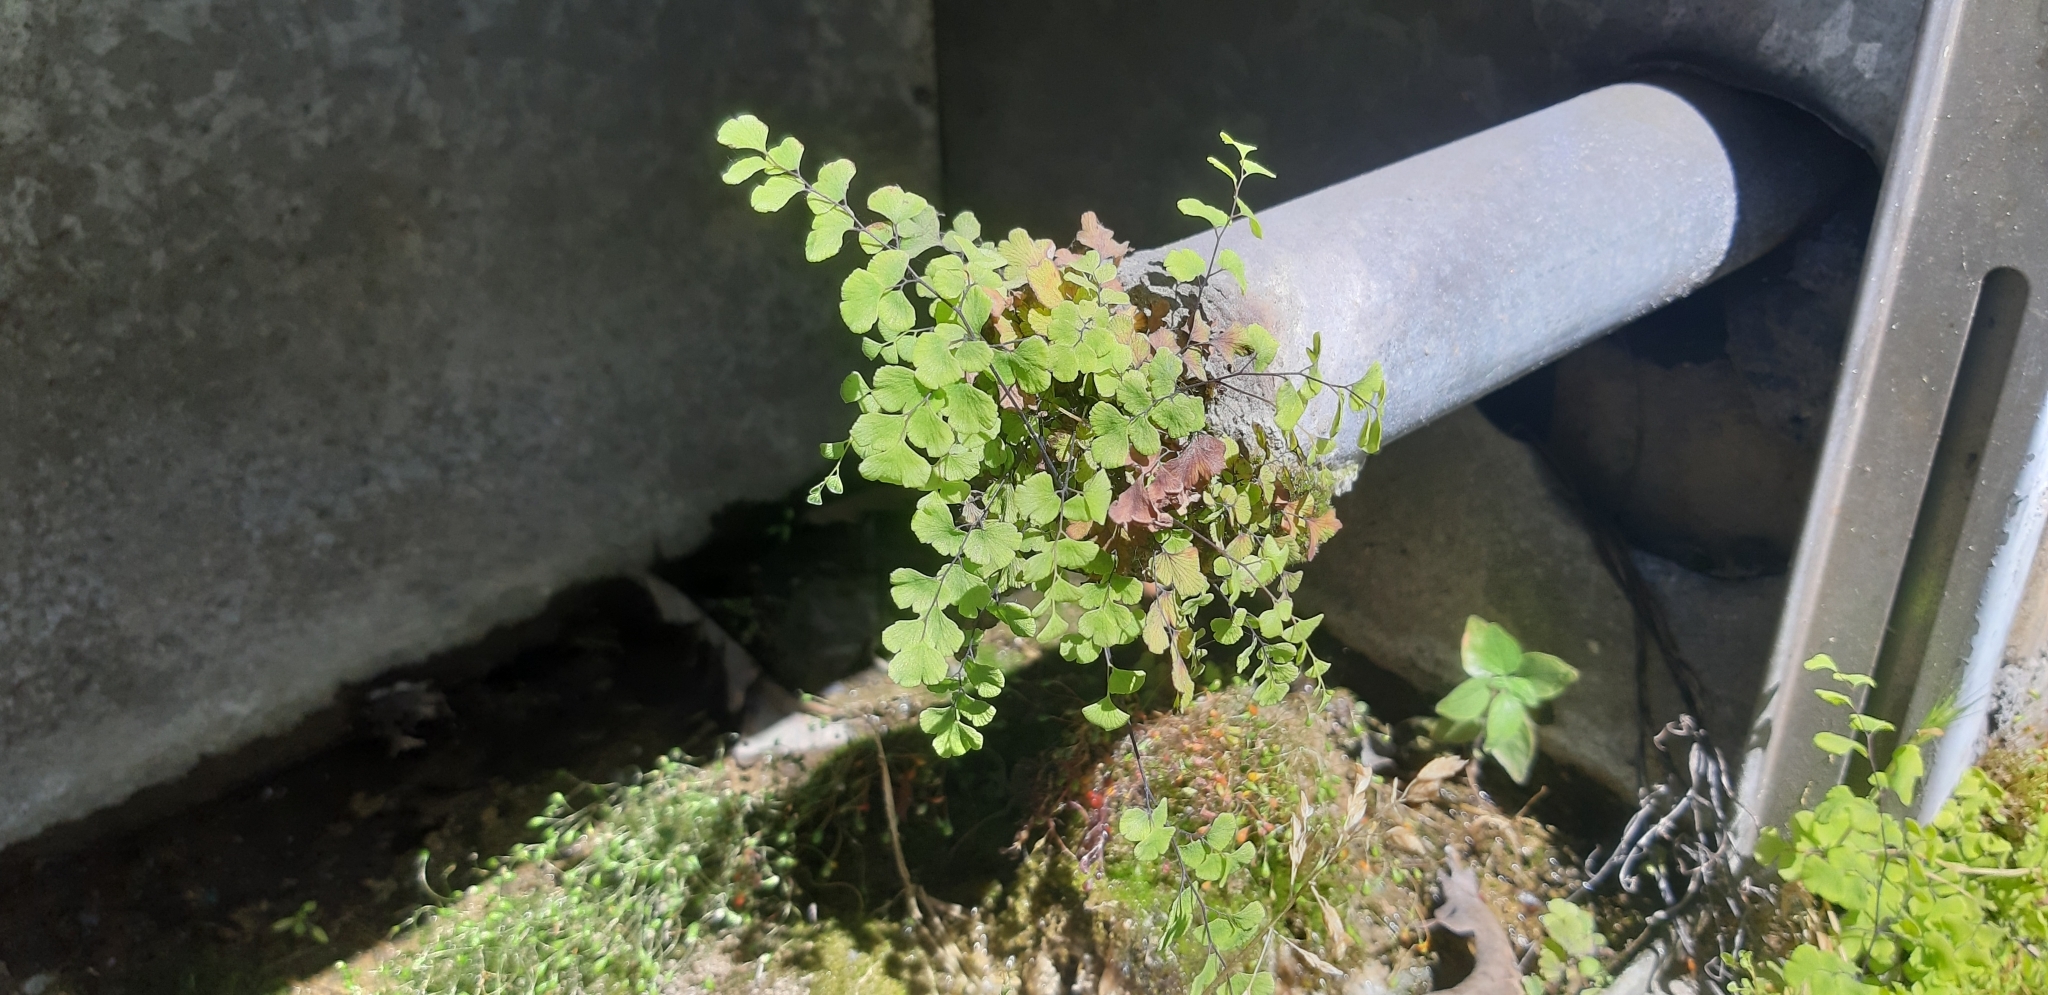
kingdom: Plantae
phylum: Tracheophyta
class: Polypodiopsida
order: Polypodiales
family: Pteridaceae
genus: Adiantum
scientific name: Adiantum capillus-veneris
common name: Maidenhair fern
